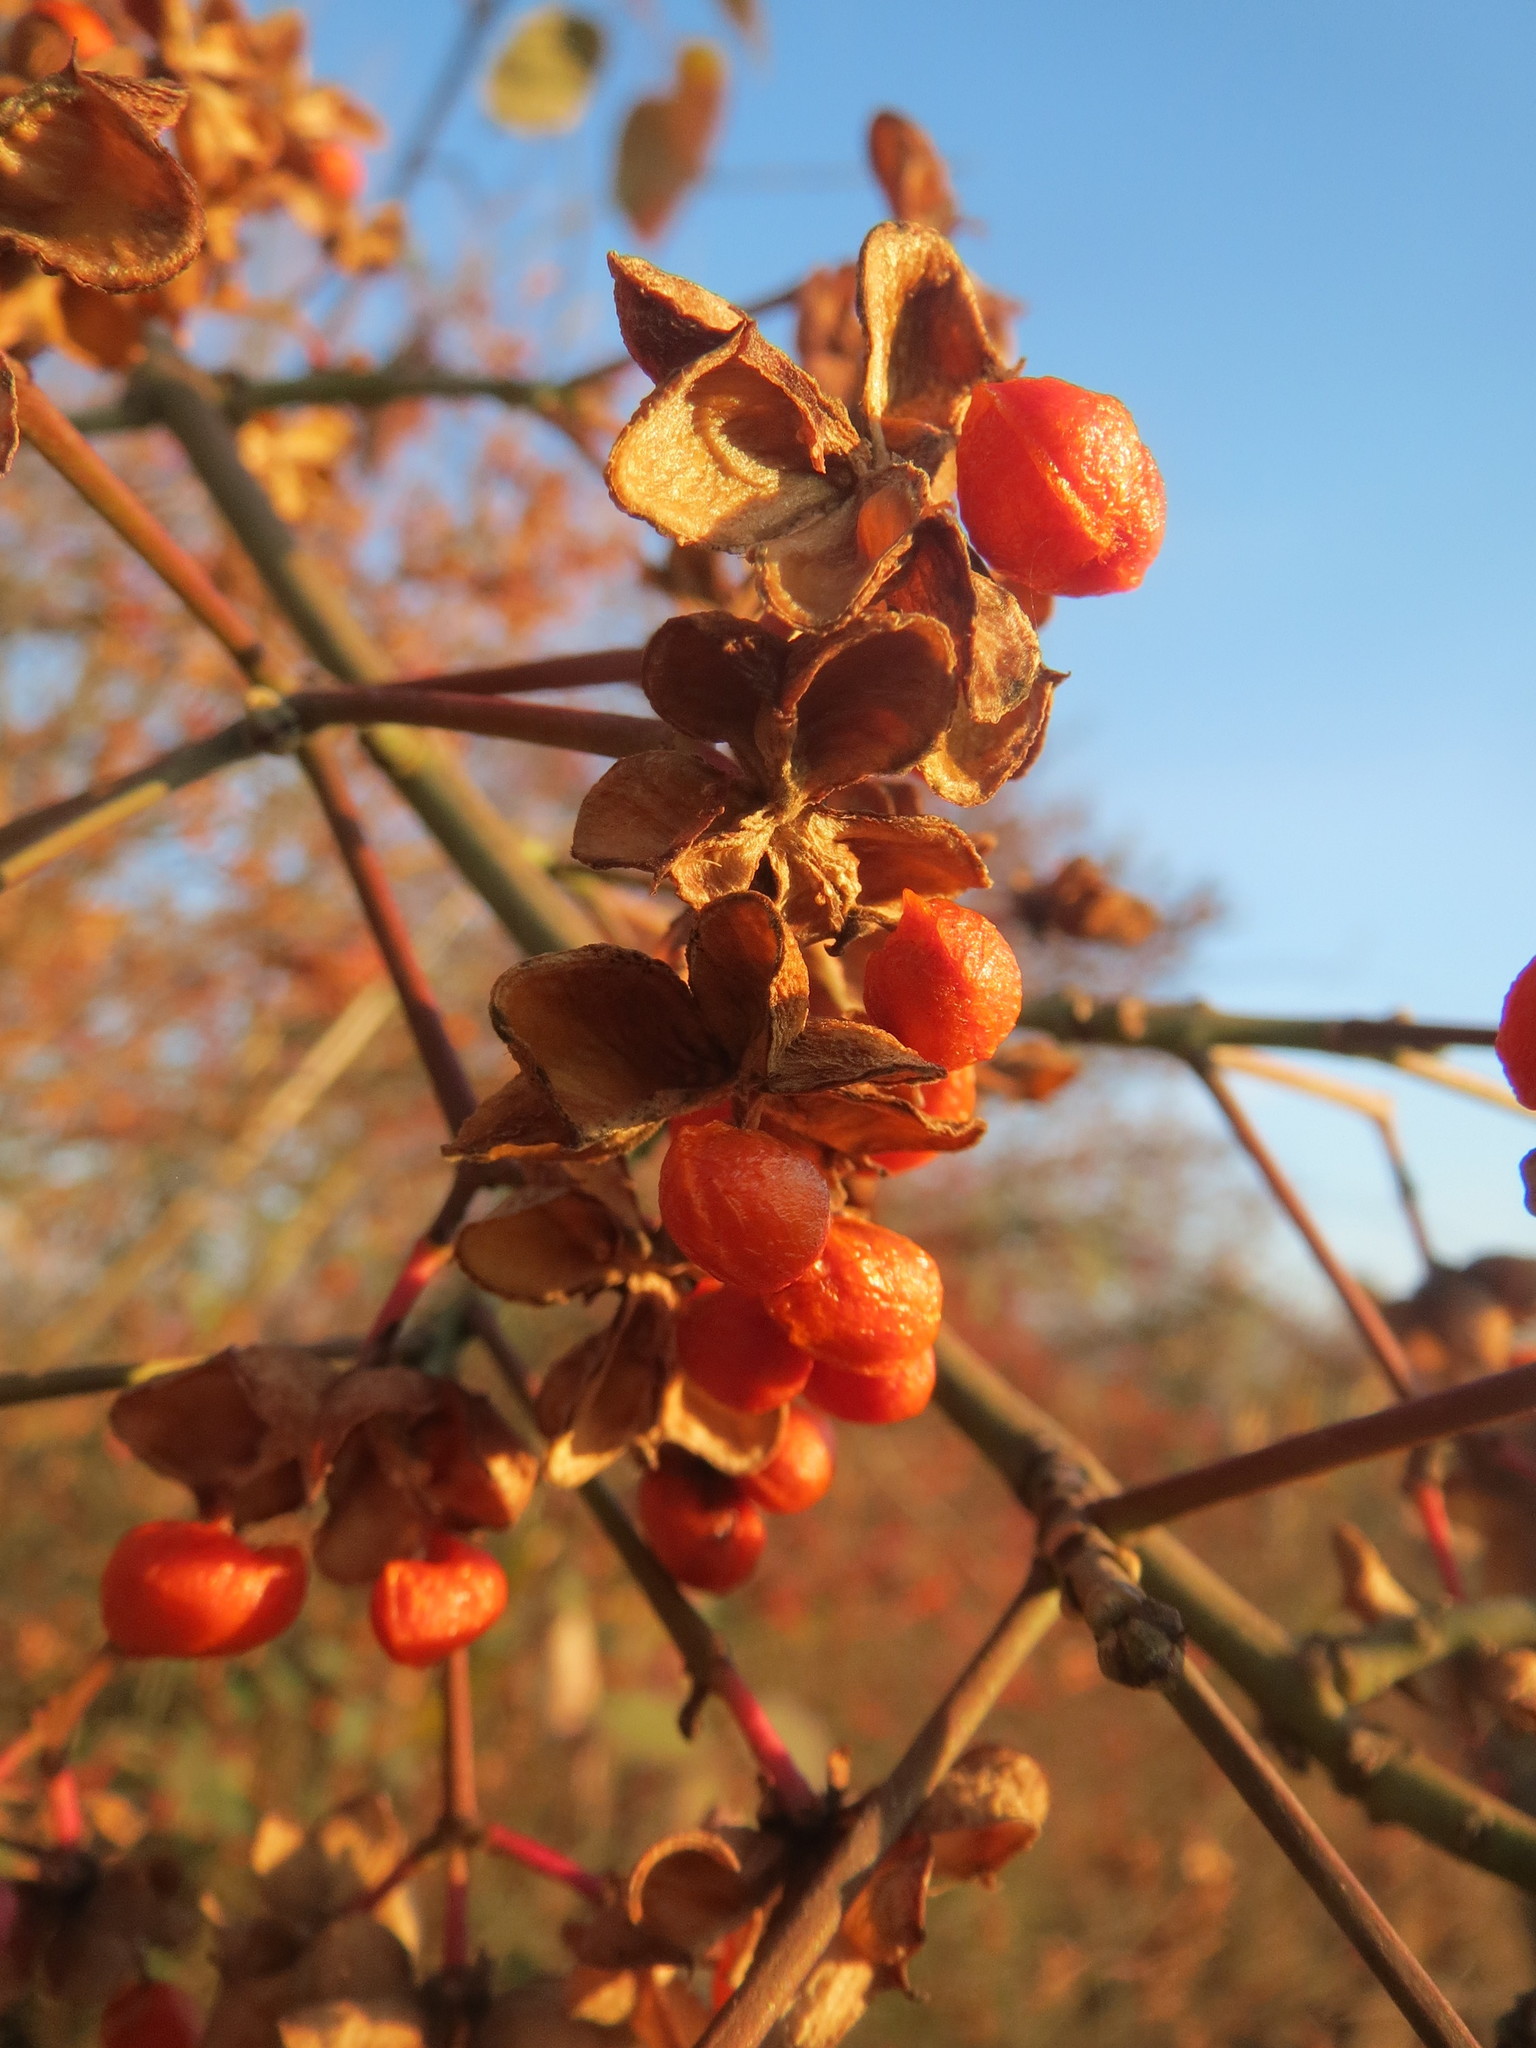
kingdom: Plantae
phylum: Tracheophyta
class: Magnoliopsida
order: Celastrales
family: Celastraceae
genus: Euonymus
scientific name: Euonymus europaeus
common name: Spindle
